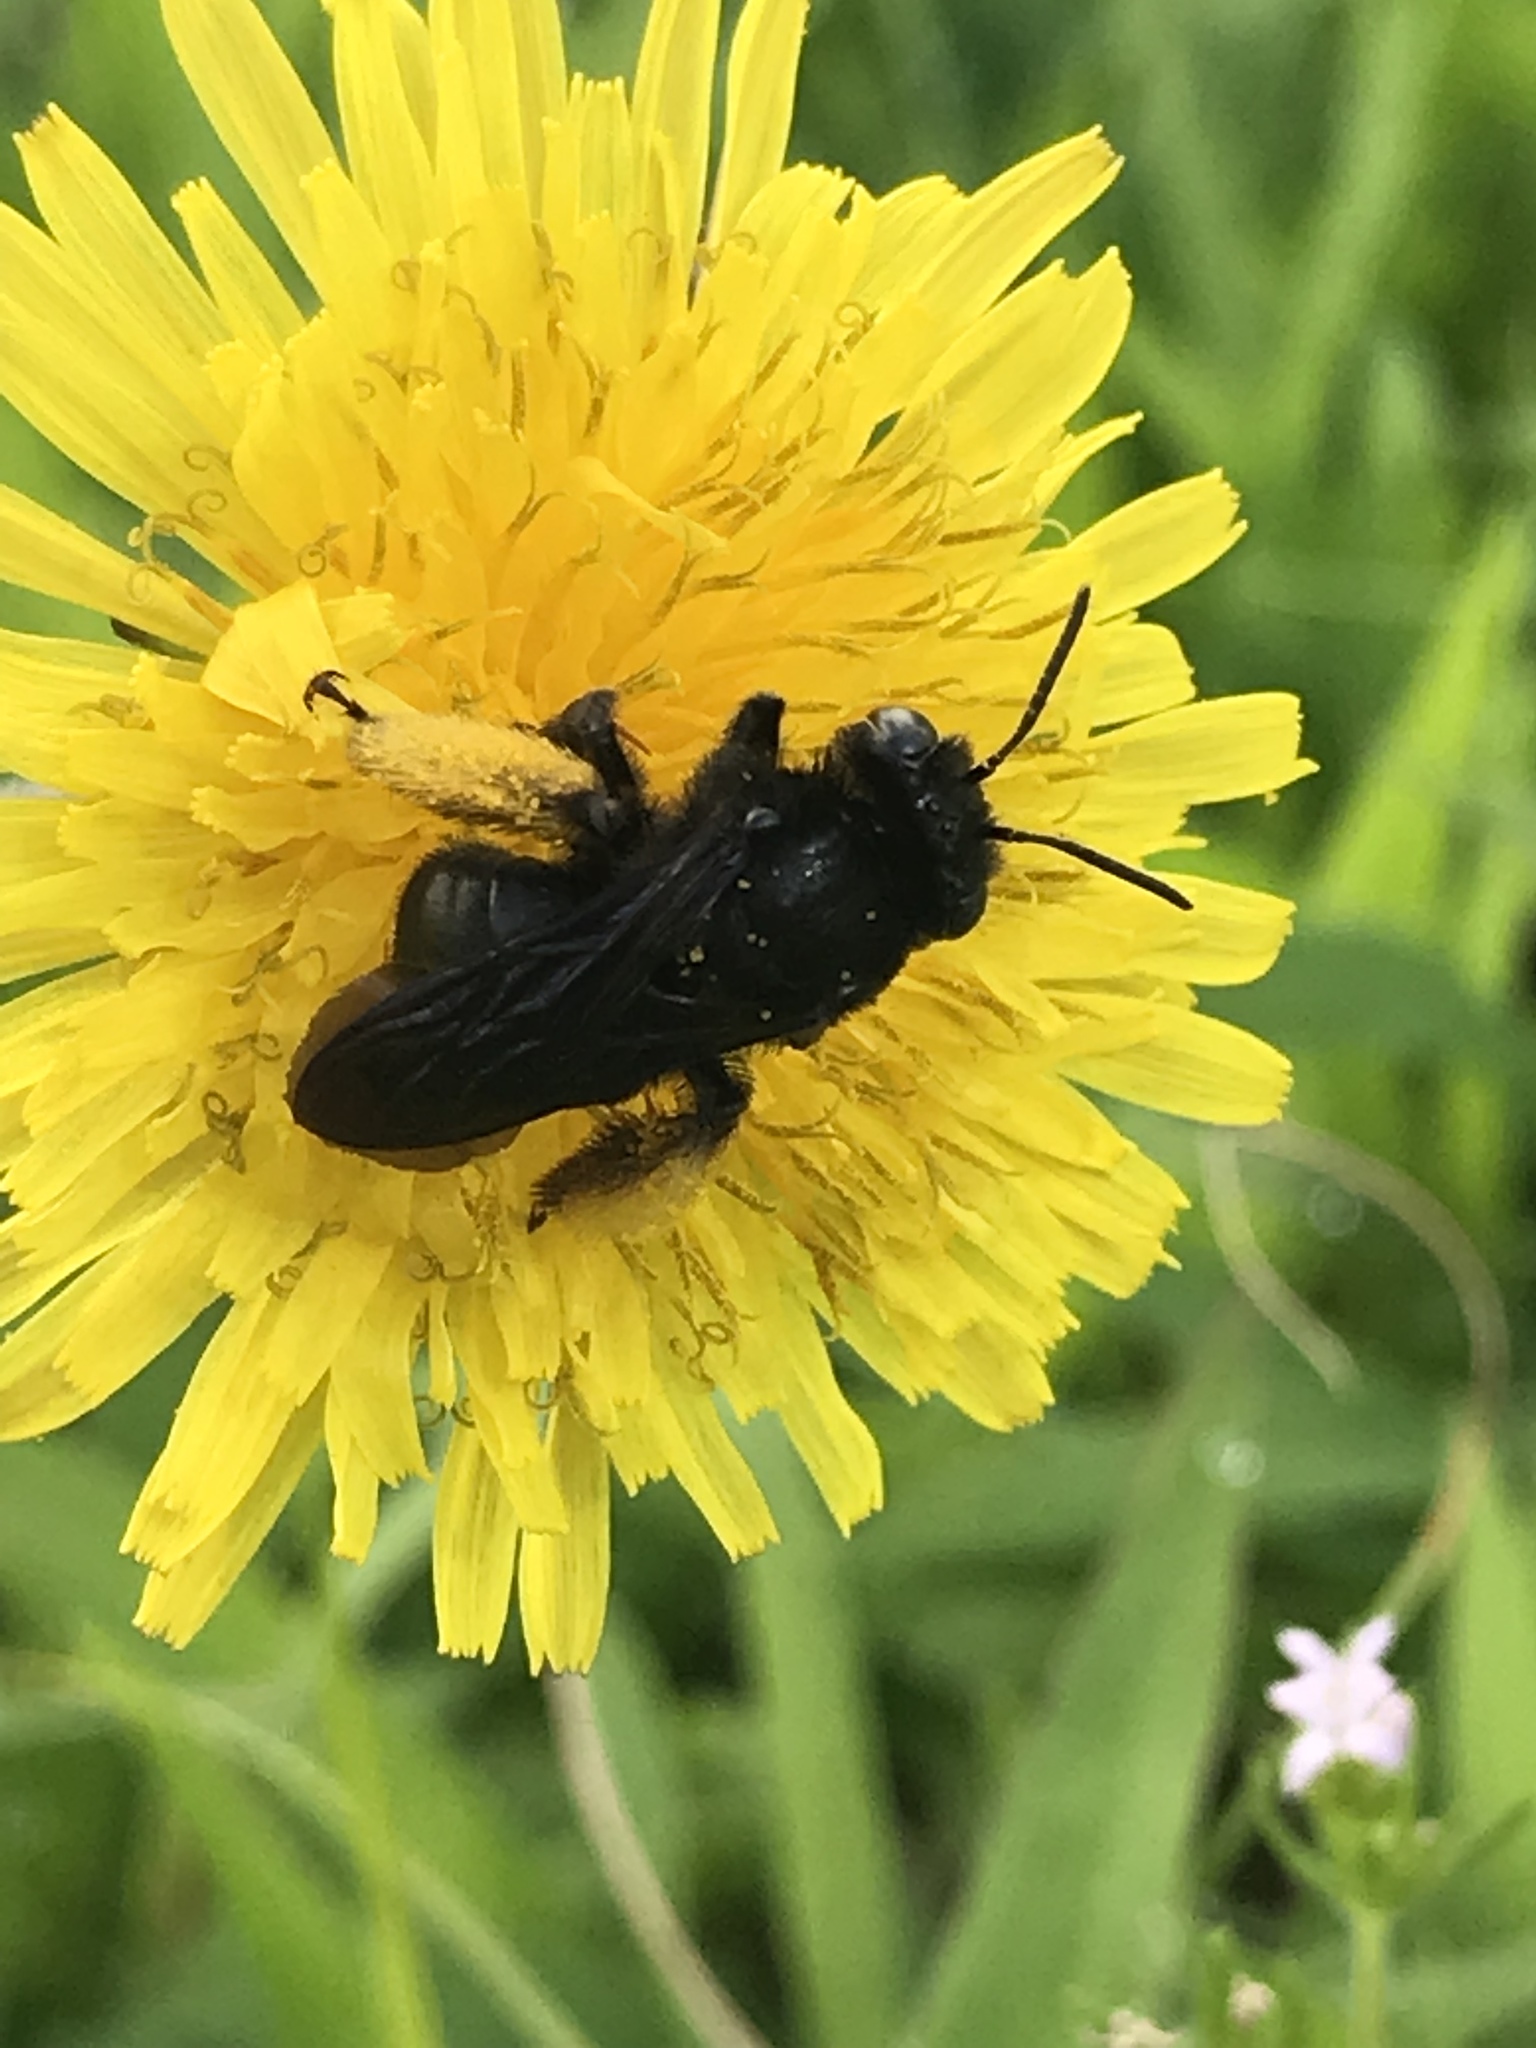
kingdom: Animalia
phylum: Arthropoda
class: Insecta
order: Hymenoptera
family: Apidae
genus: Melissodes
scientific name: Melissodes bimaculatus
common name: Two-spotted long-horned bee
